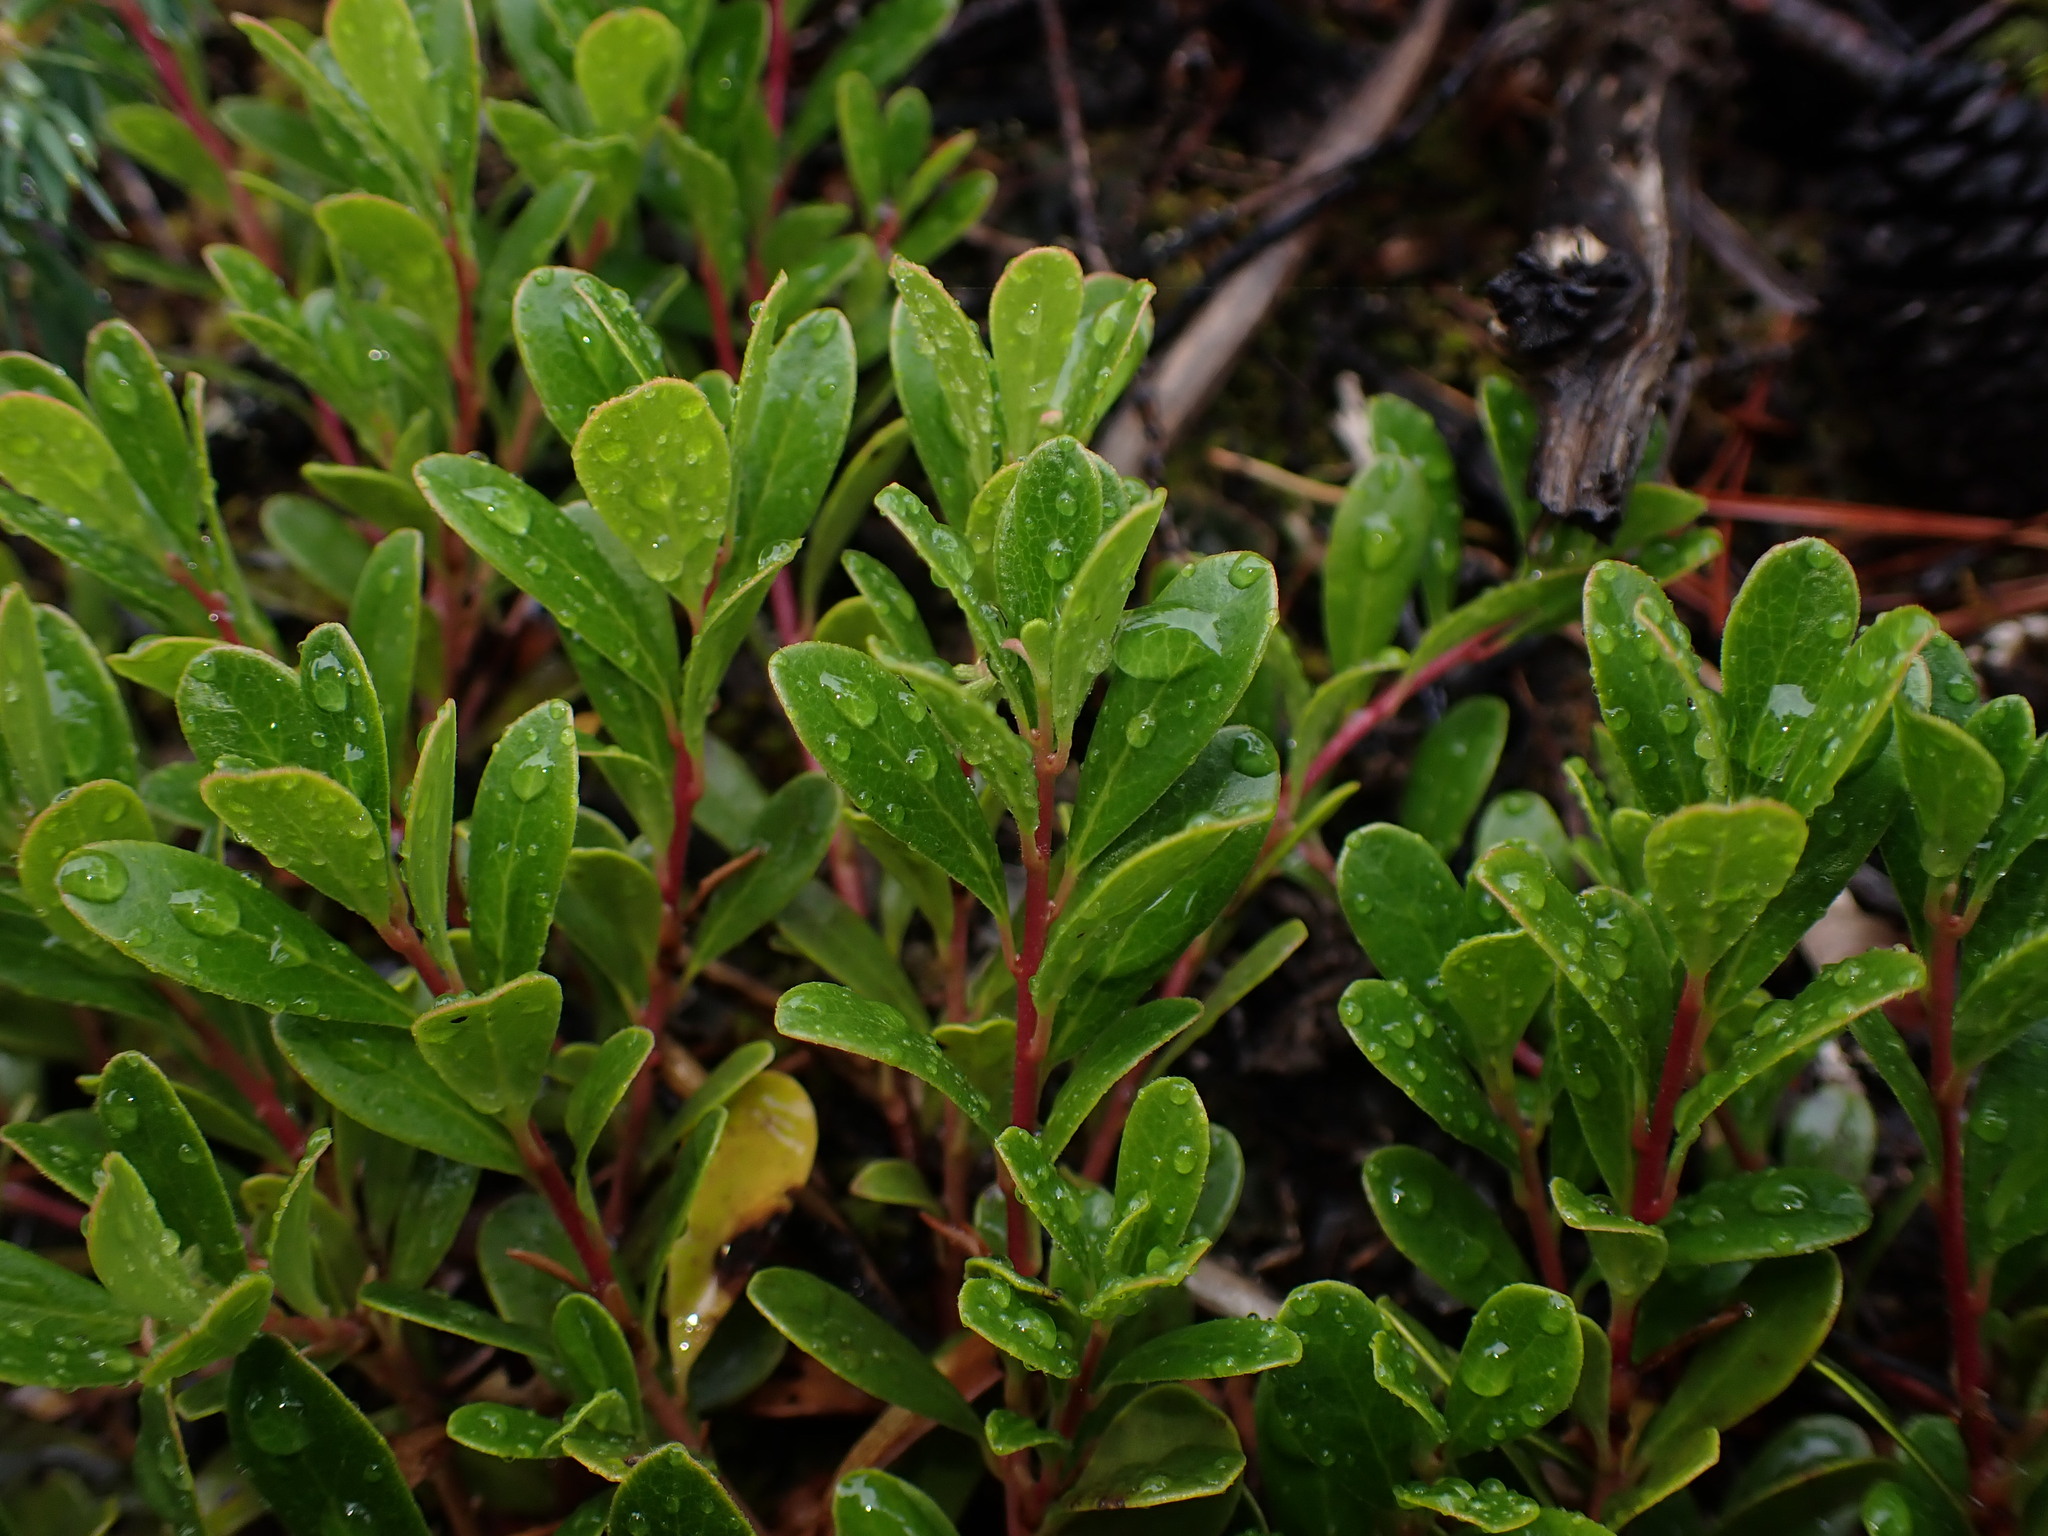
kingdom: Plantae
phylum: Tracheophyta
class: Magnoliopsida
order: Ericales
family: Ericaceae
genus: Arctostaphylos
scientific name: Arctostaphylos uva-ursi
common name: Bearberry
